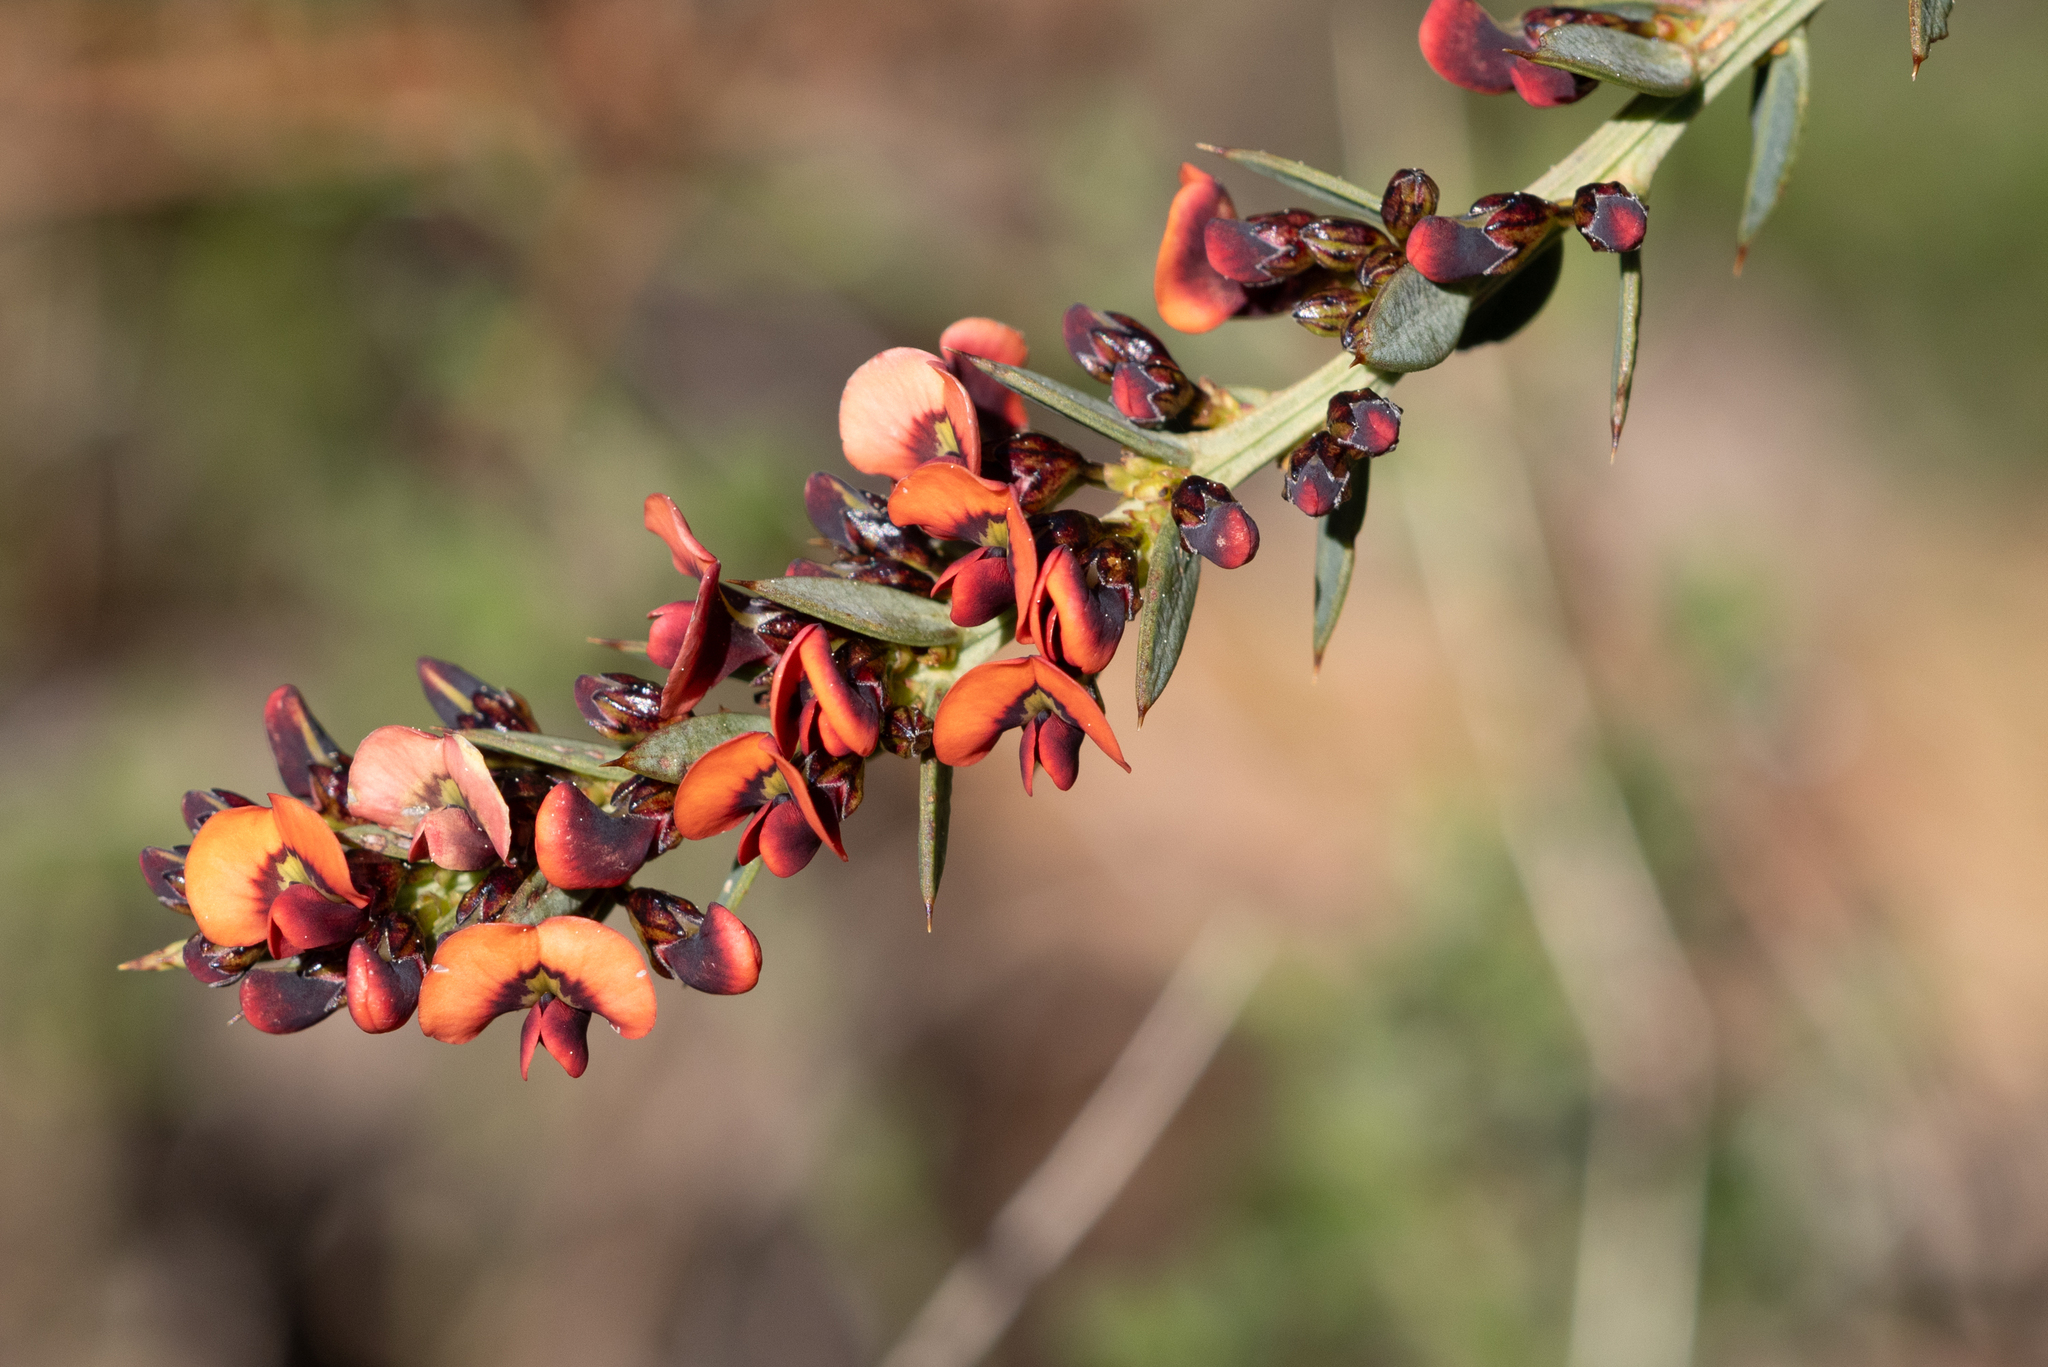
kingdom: Plantae
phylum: Tracheophyta
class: Magnoliopsida
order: Fabales
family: Fabaceae
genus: Daviesia
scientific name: Daviesia ulicifolia
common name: Gorse bitter-pea
